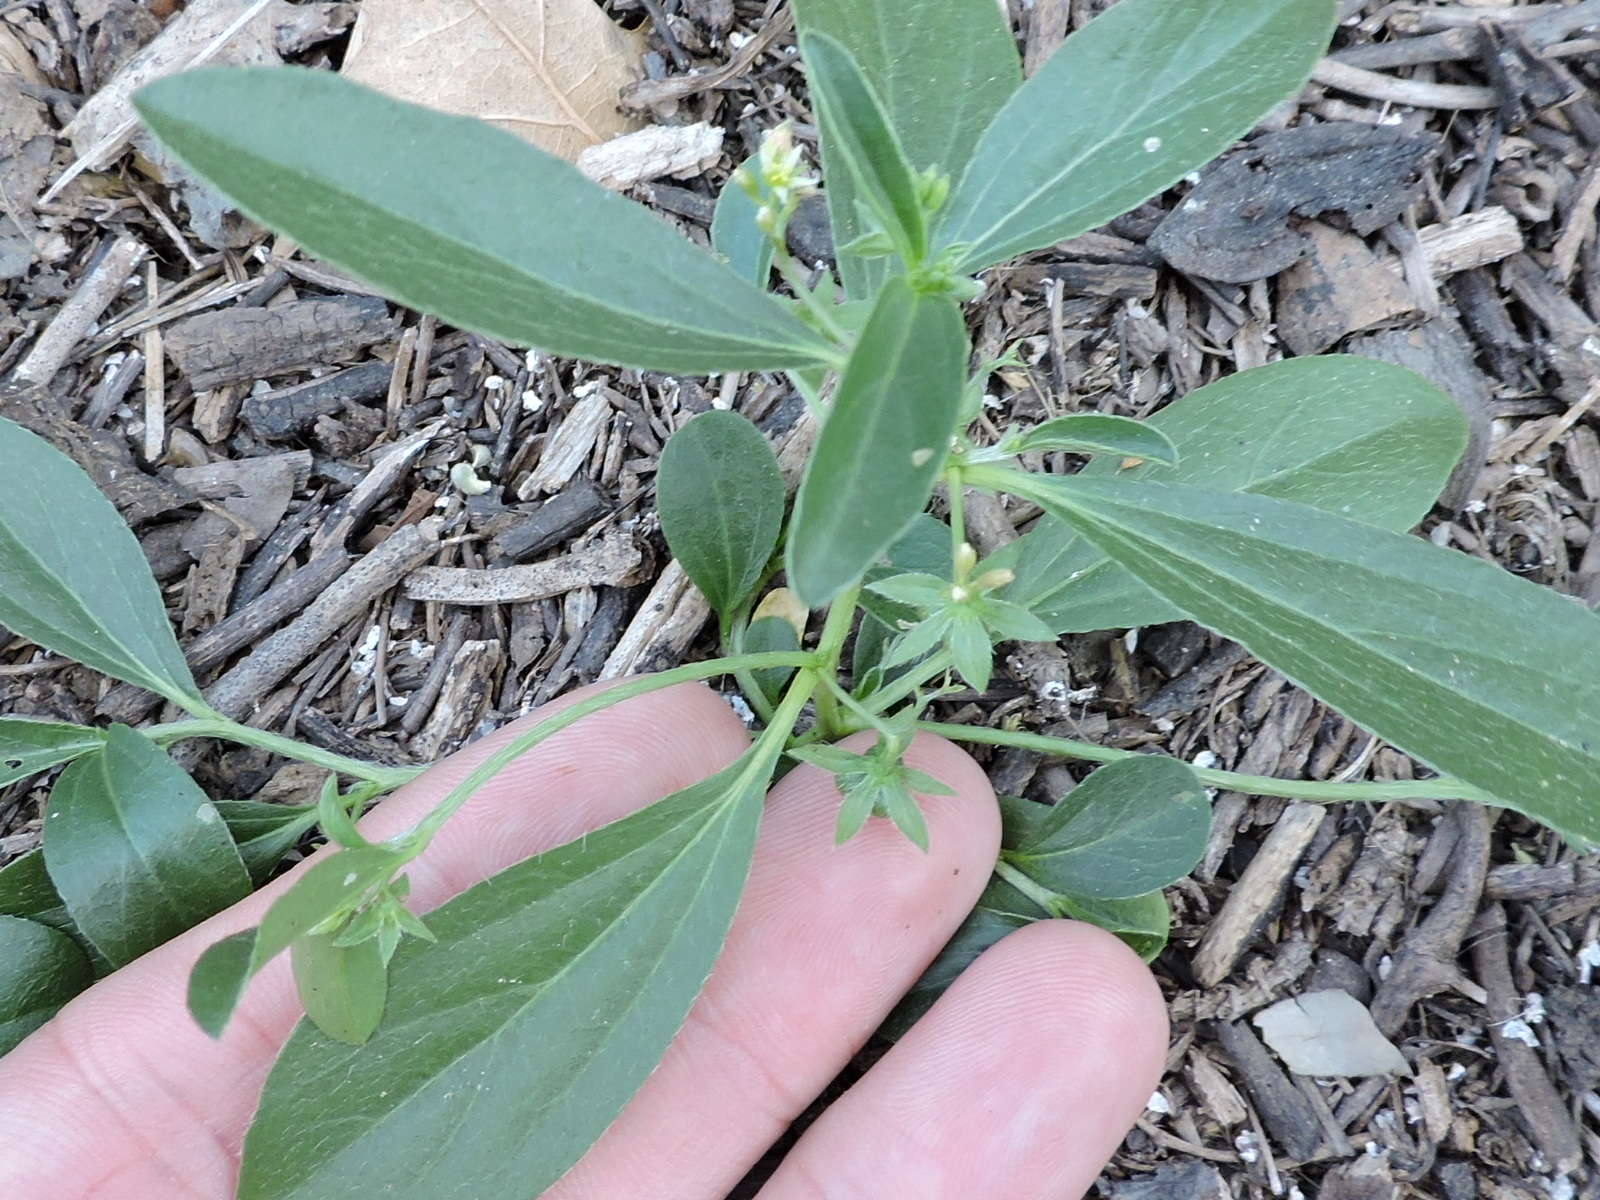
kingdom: Plantae
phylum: Tracheophyta
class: Magnoliopsida
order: Malpighiales
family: Euphorbiaceae
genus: Ditaxis
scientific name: Ditaxis humilis
